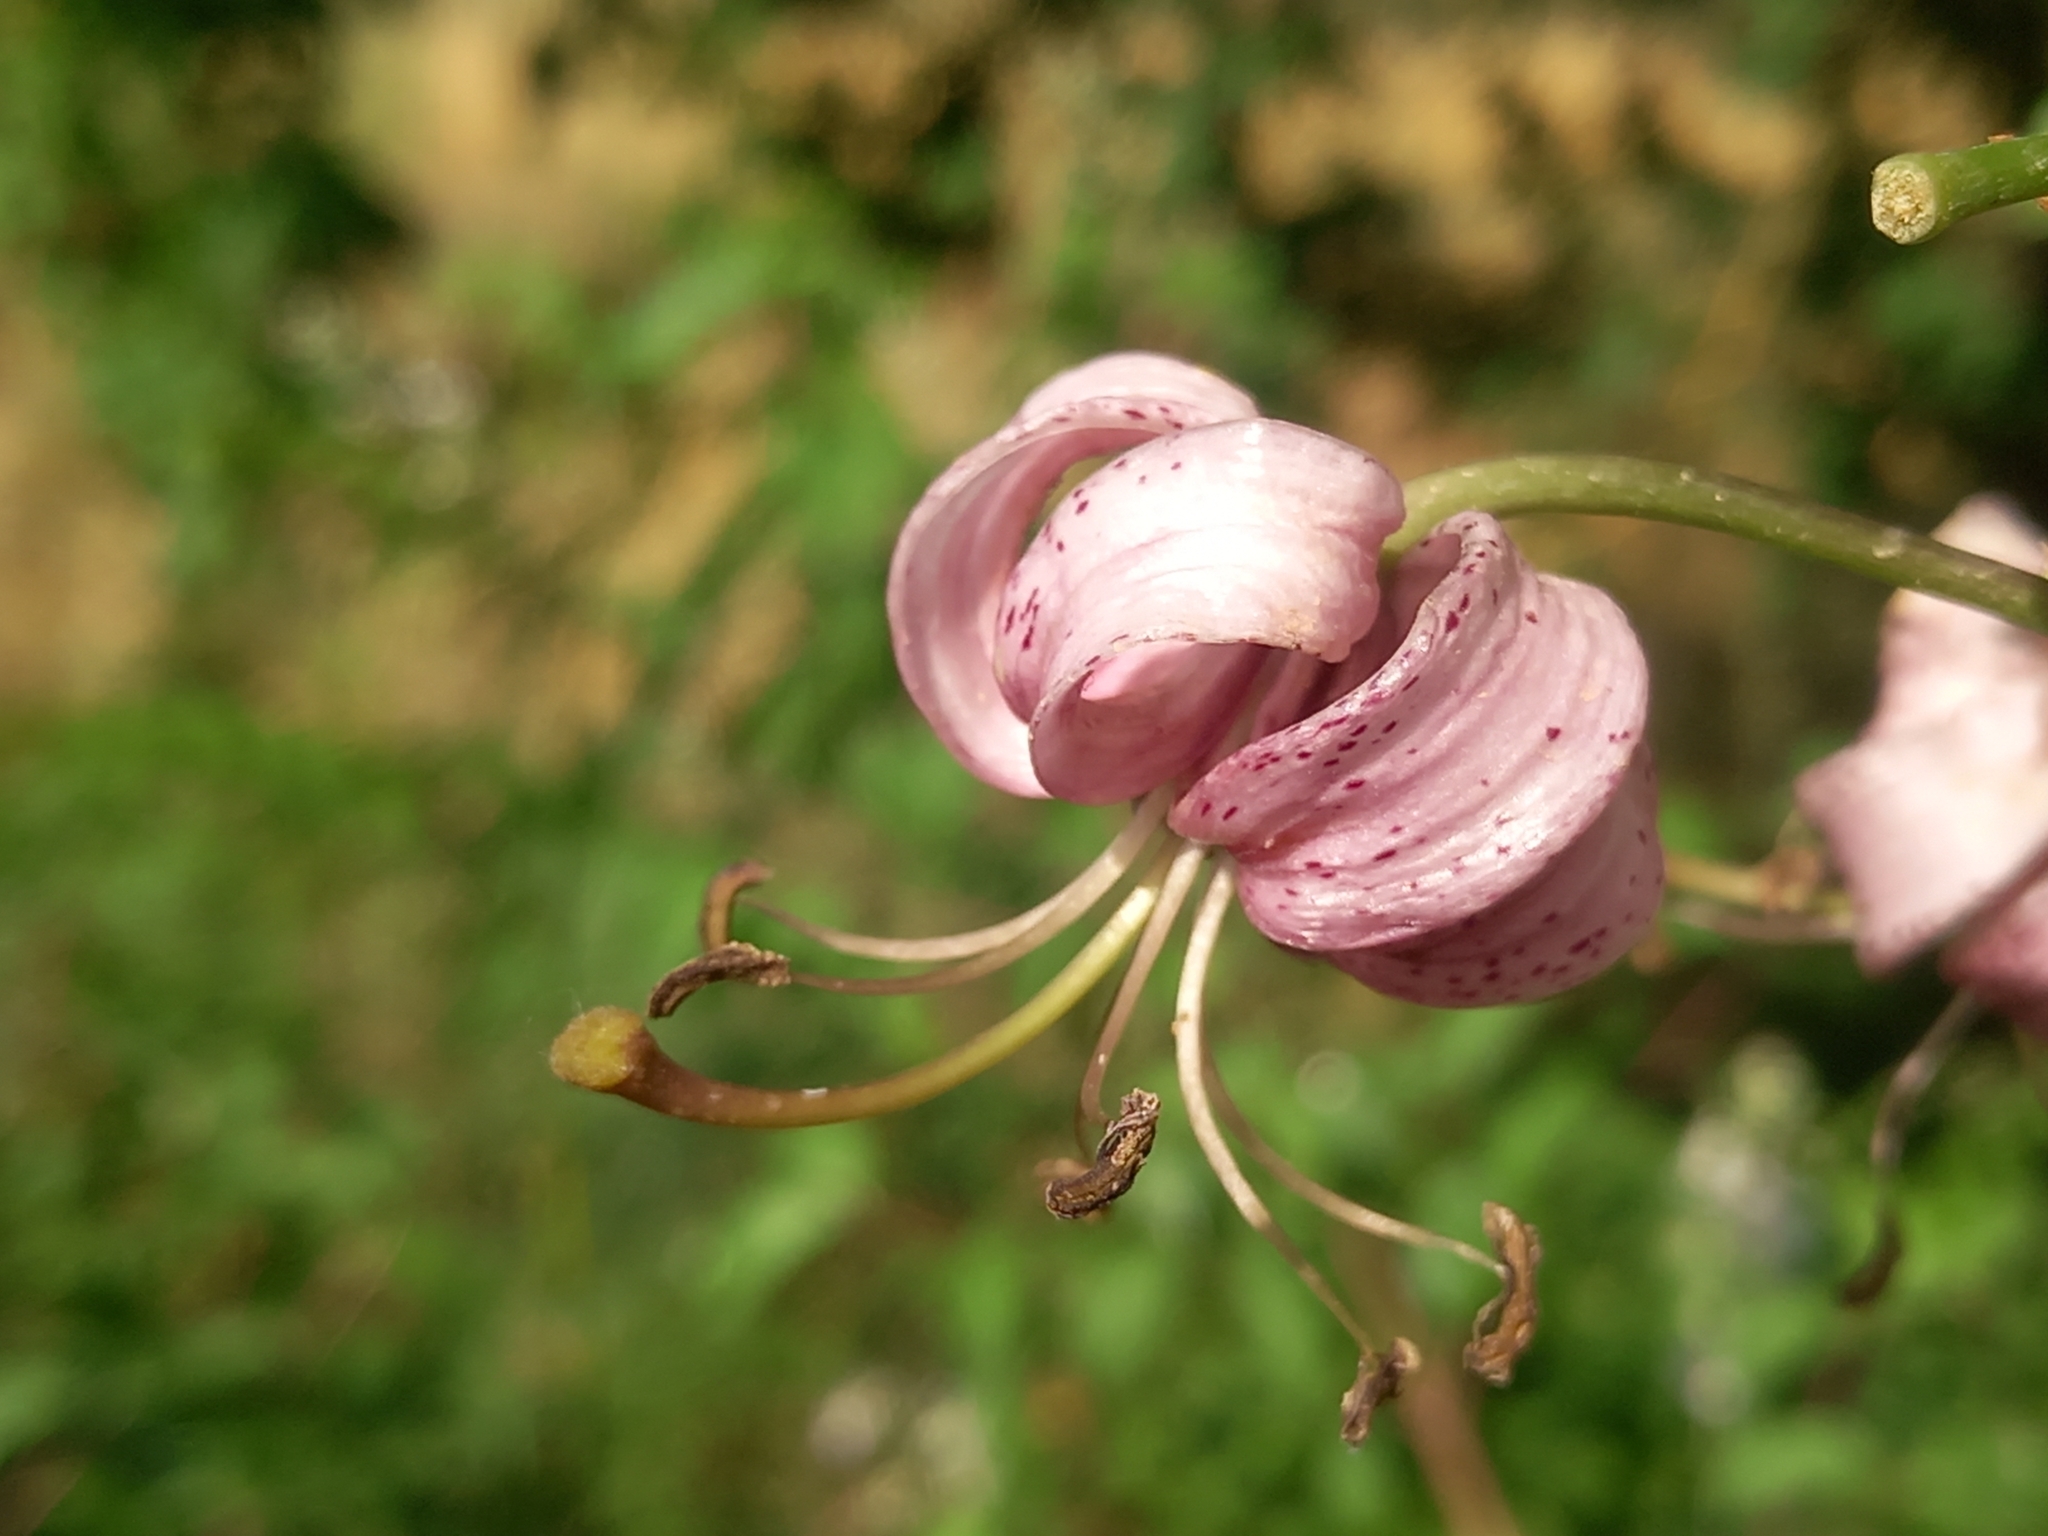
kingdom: Plantae
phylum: Tracheophyta
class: Liliopsida
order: Liliales
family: Liliaceae
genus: Lilium
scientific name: Lilium martagon
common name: Martagon lily
